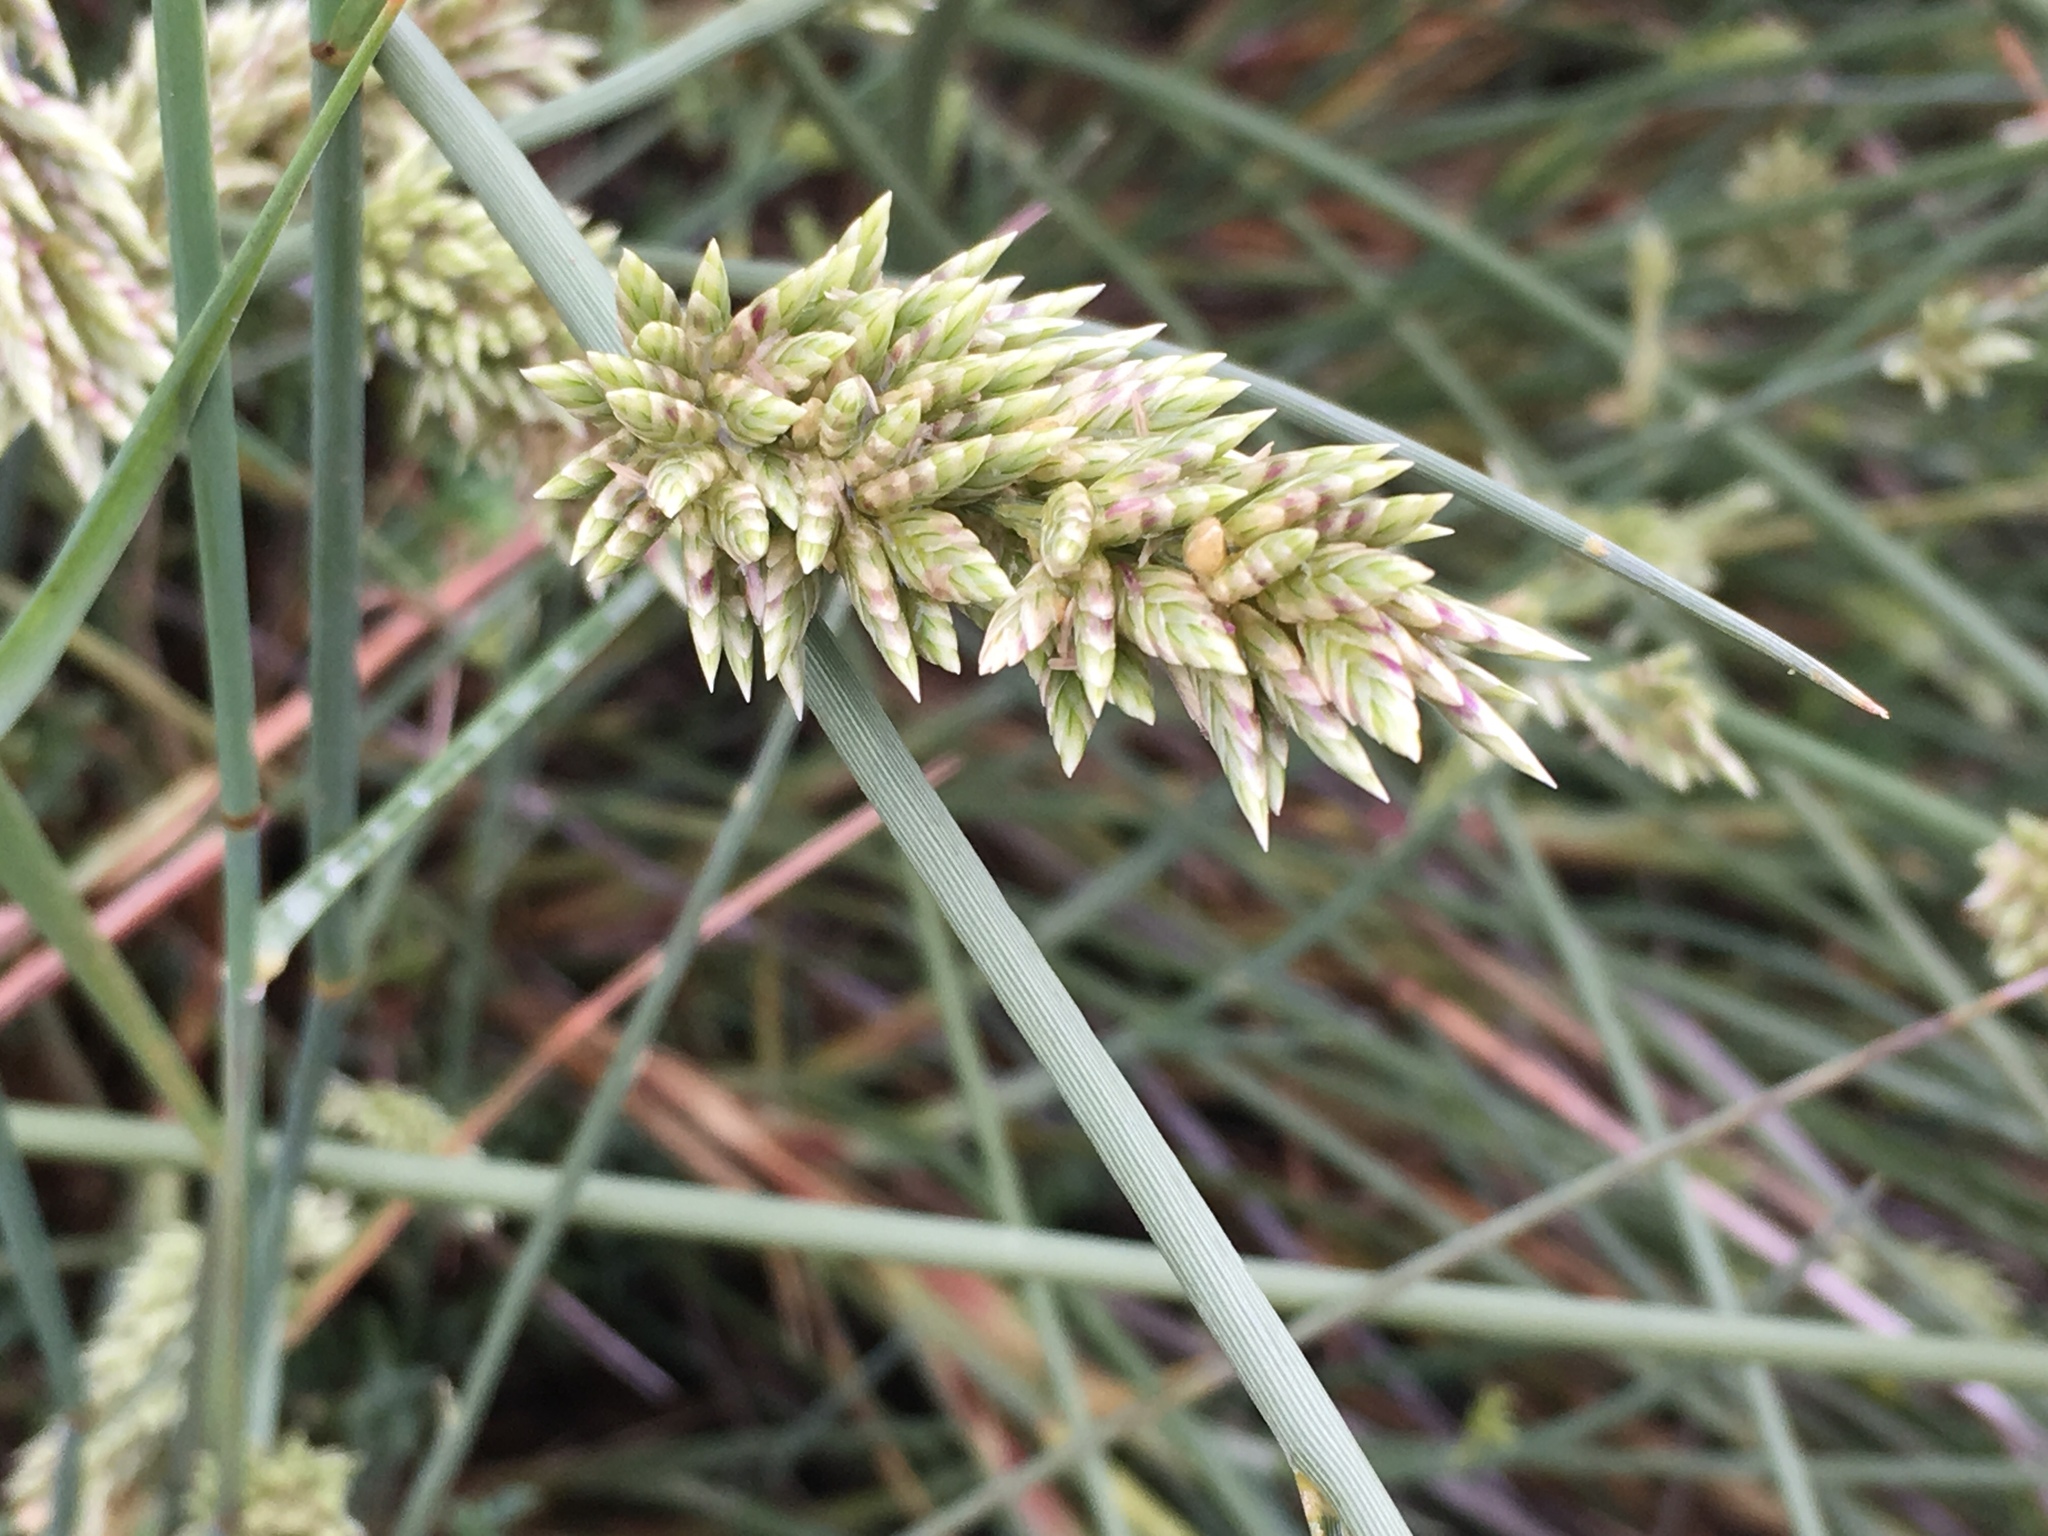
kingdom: Plantae
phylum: Tracheophyta
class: Liliopsida
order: Poales
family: Poaceae
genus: Cladoraphis
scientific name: Cladoraphis cyperoides
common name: Bristly lovegrass
